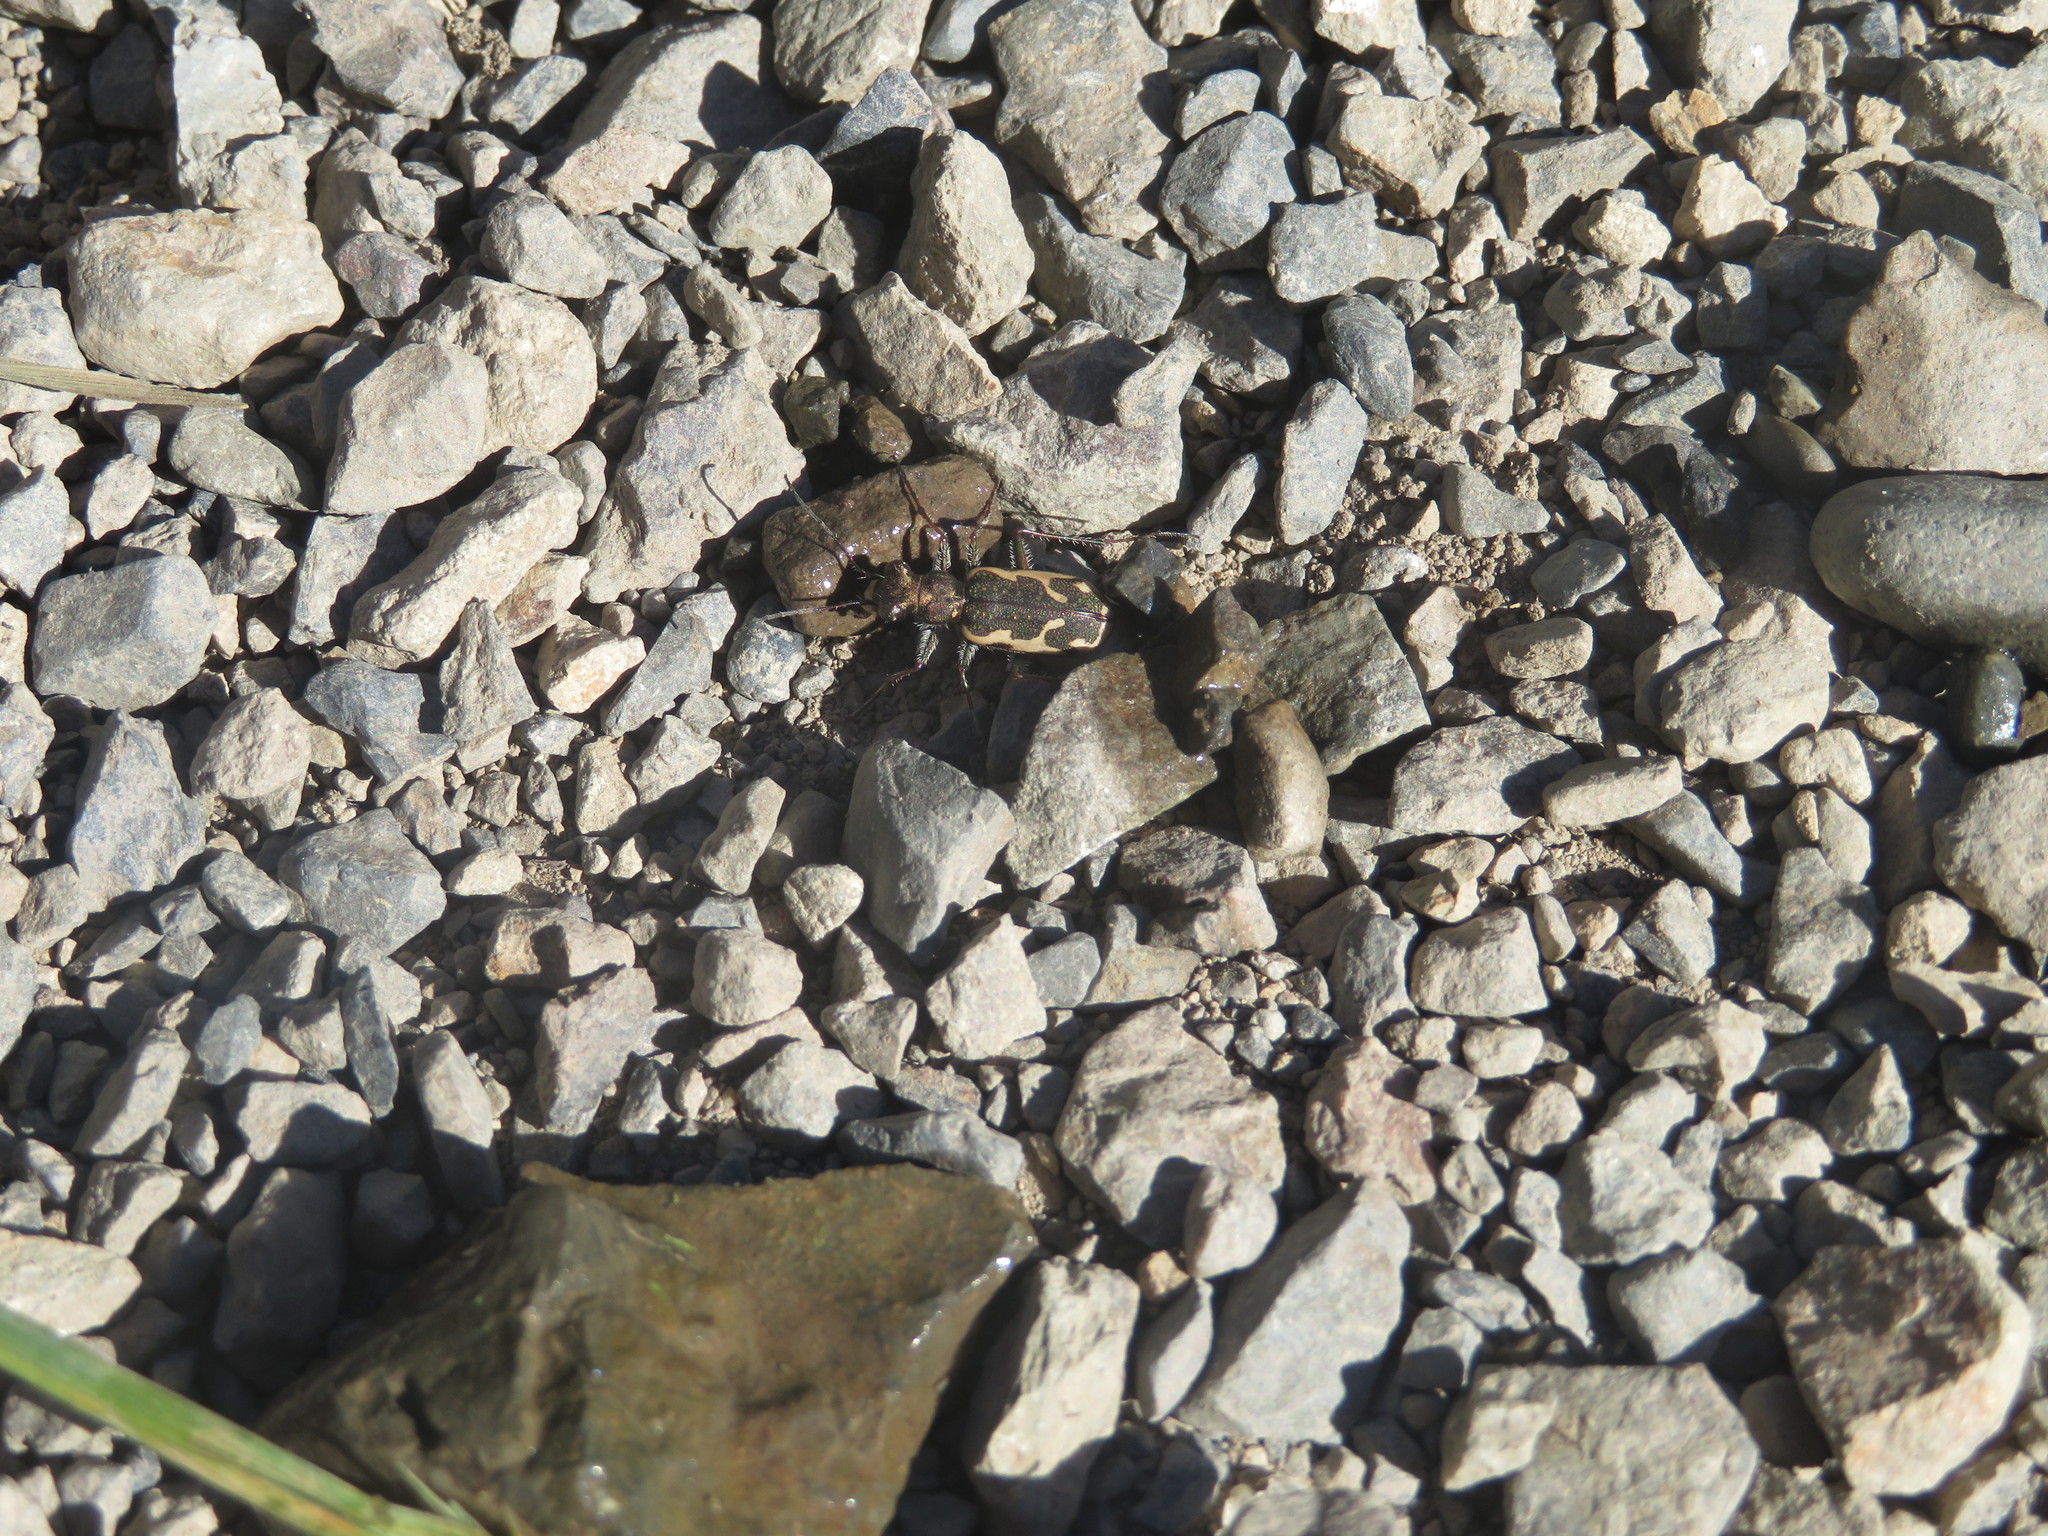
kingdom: Animalia
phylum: Arthropoda
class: Insecta
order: Coleoptera
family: Carabidae
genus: Neocicindela
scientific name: Neocicindela tuberculata
